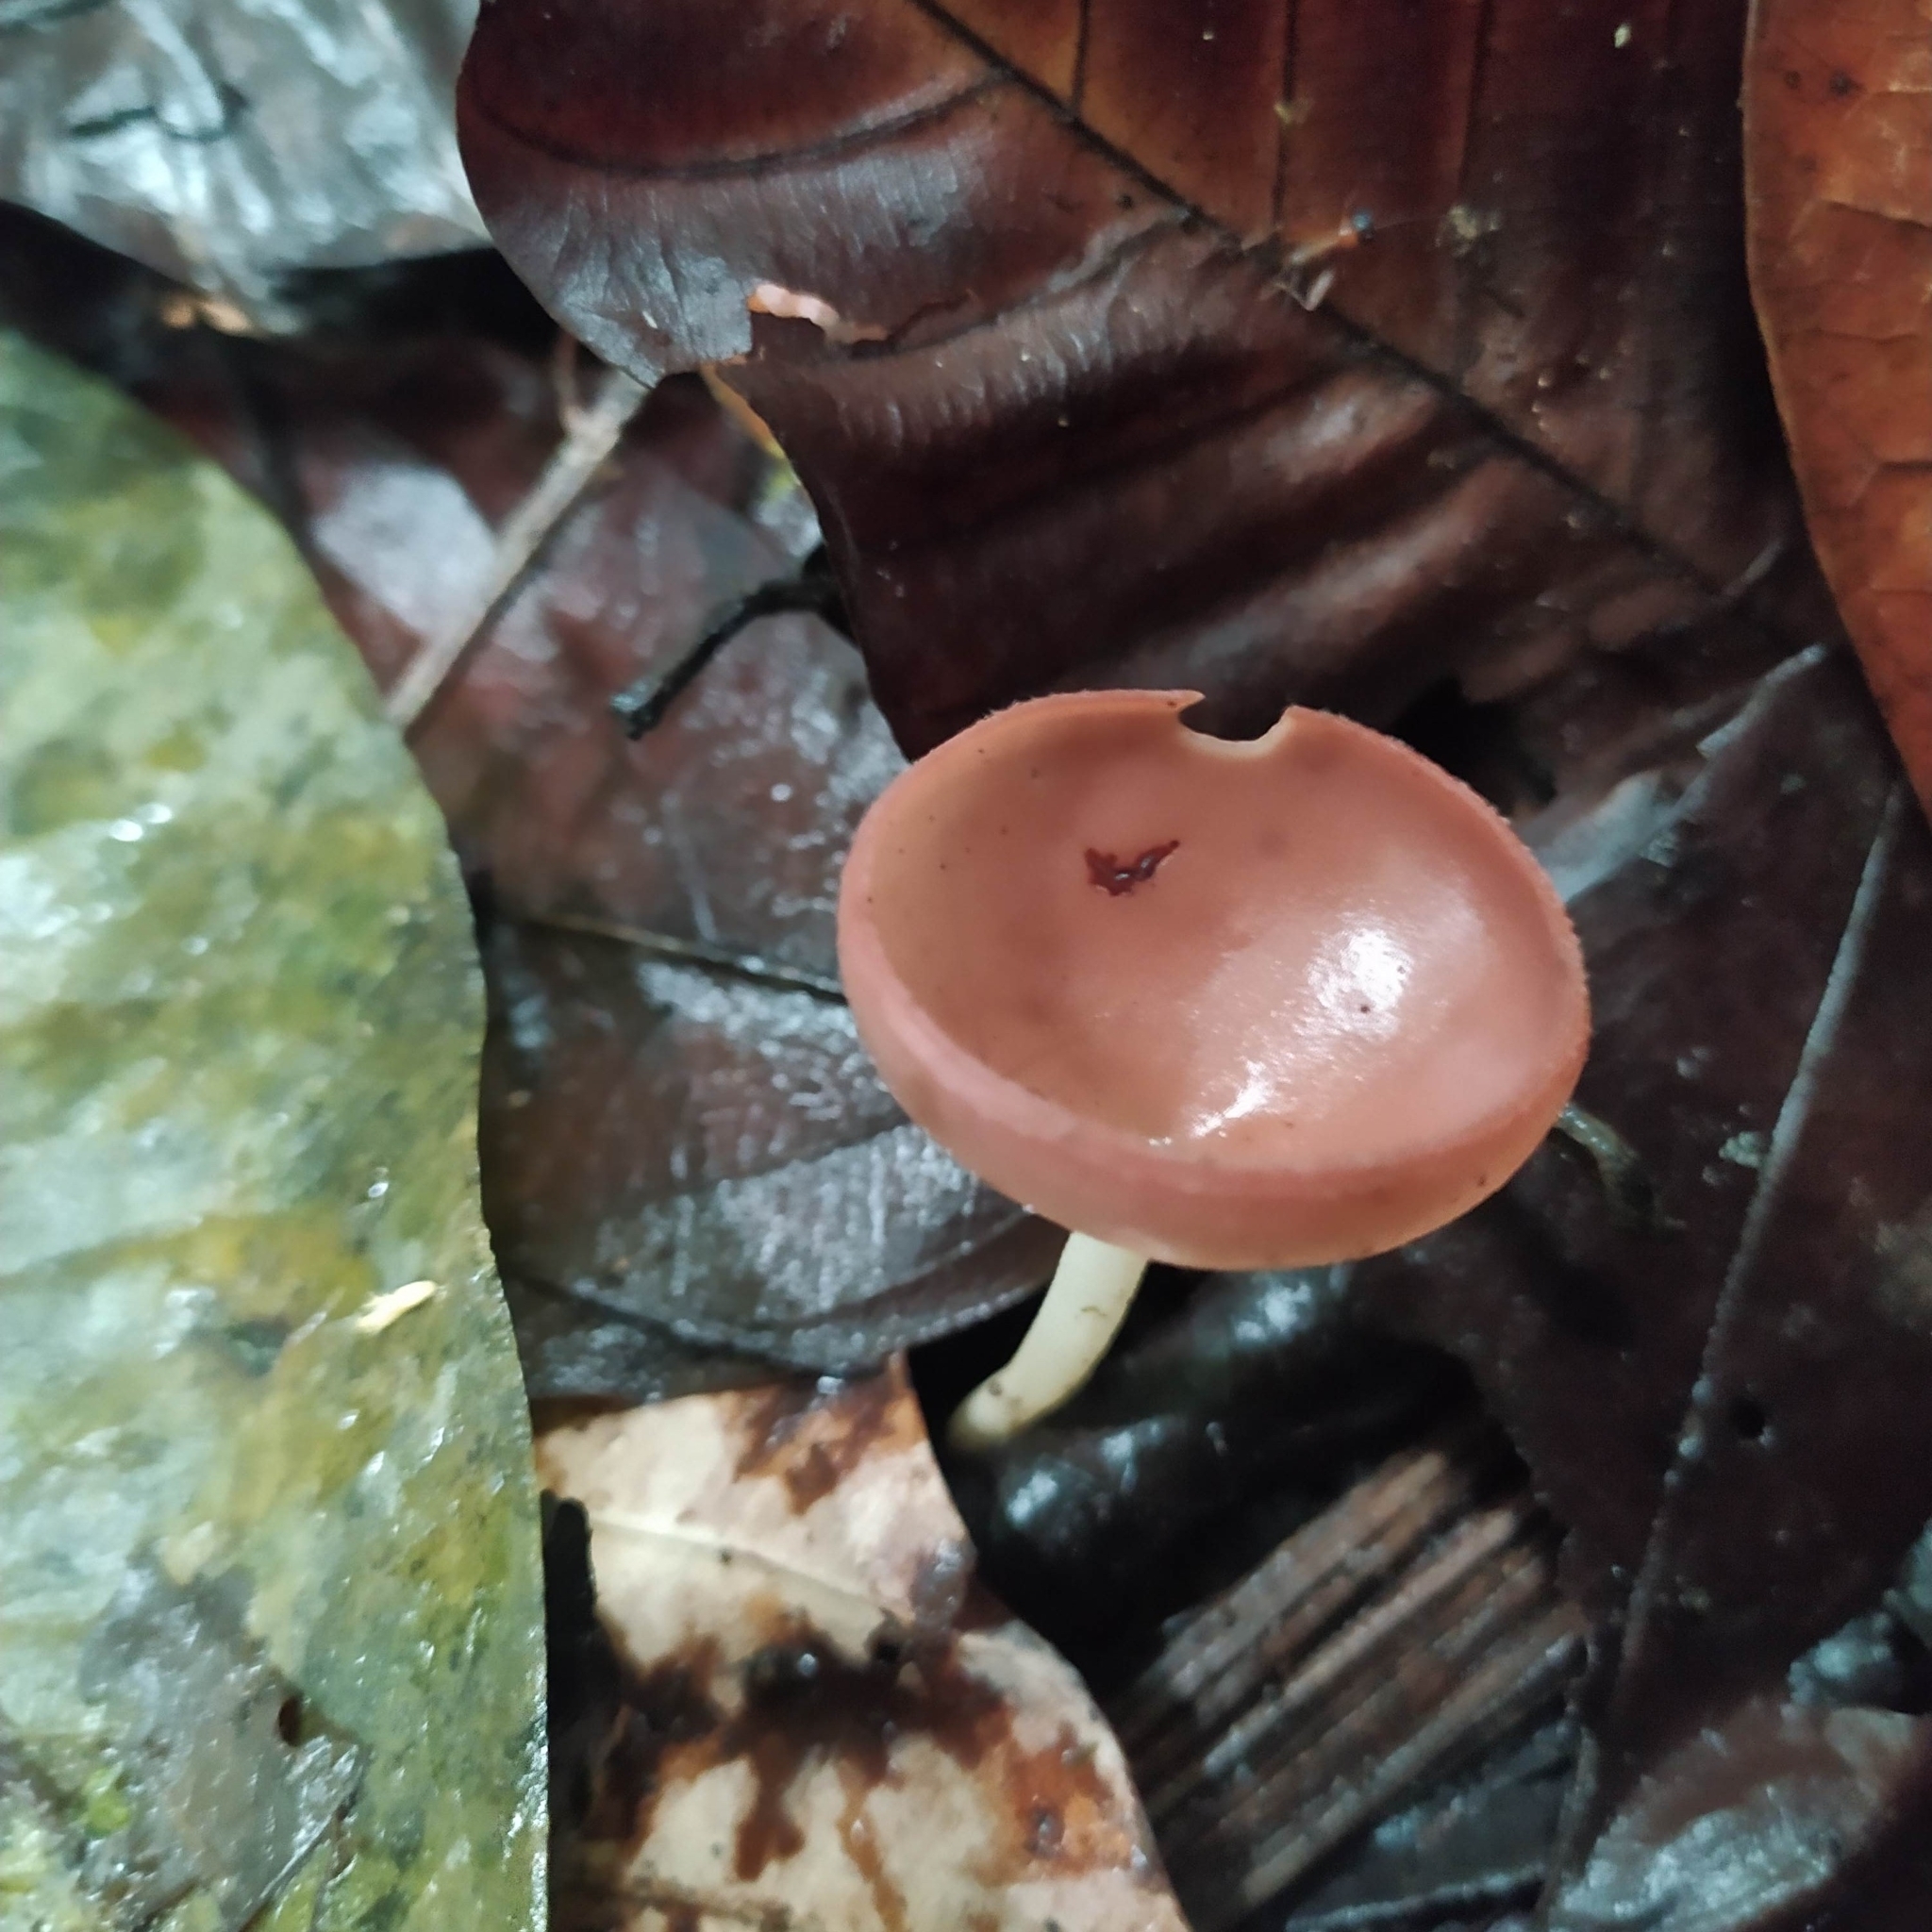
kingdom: Fungi
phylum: Ascomycota
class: Pezizomycetes
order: Pezizales
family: Sarcoscyphaceae
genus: Cookeina
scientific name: Cookeina speciosa
